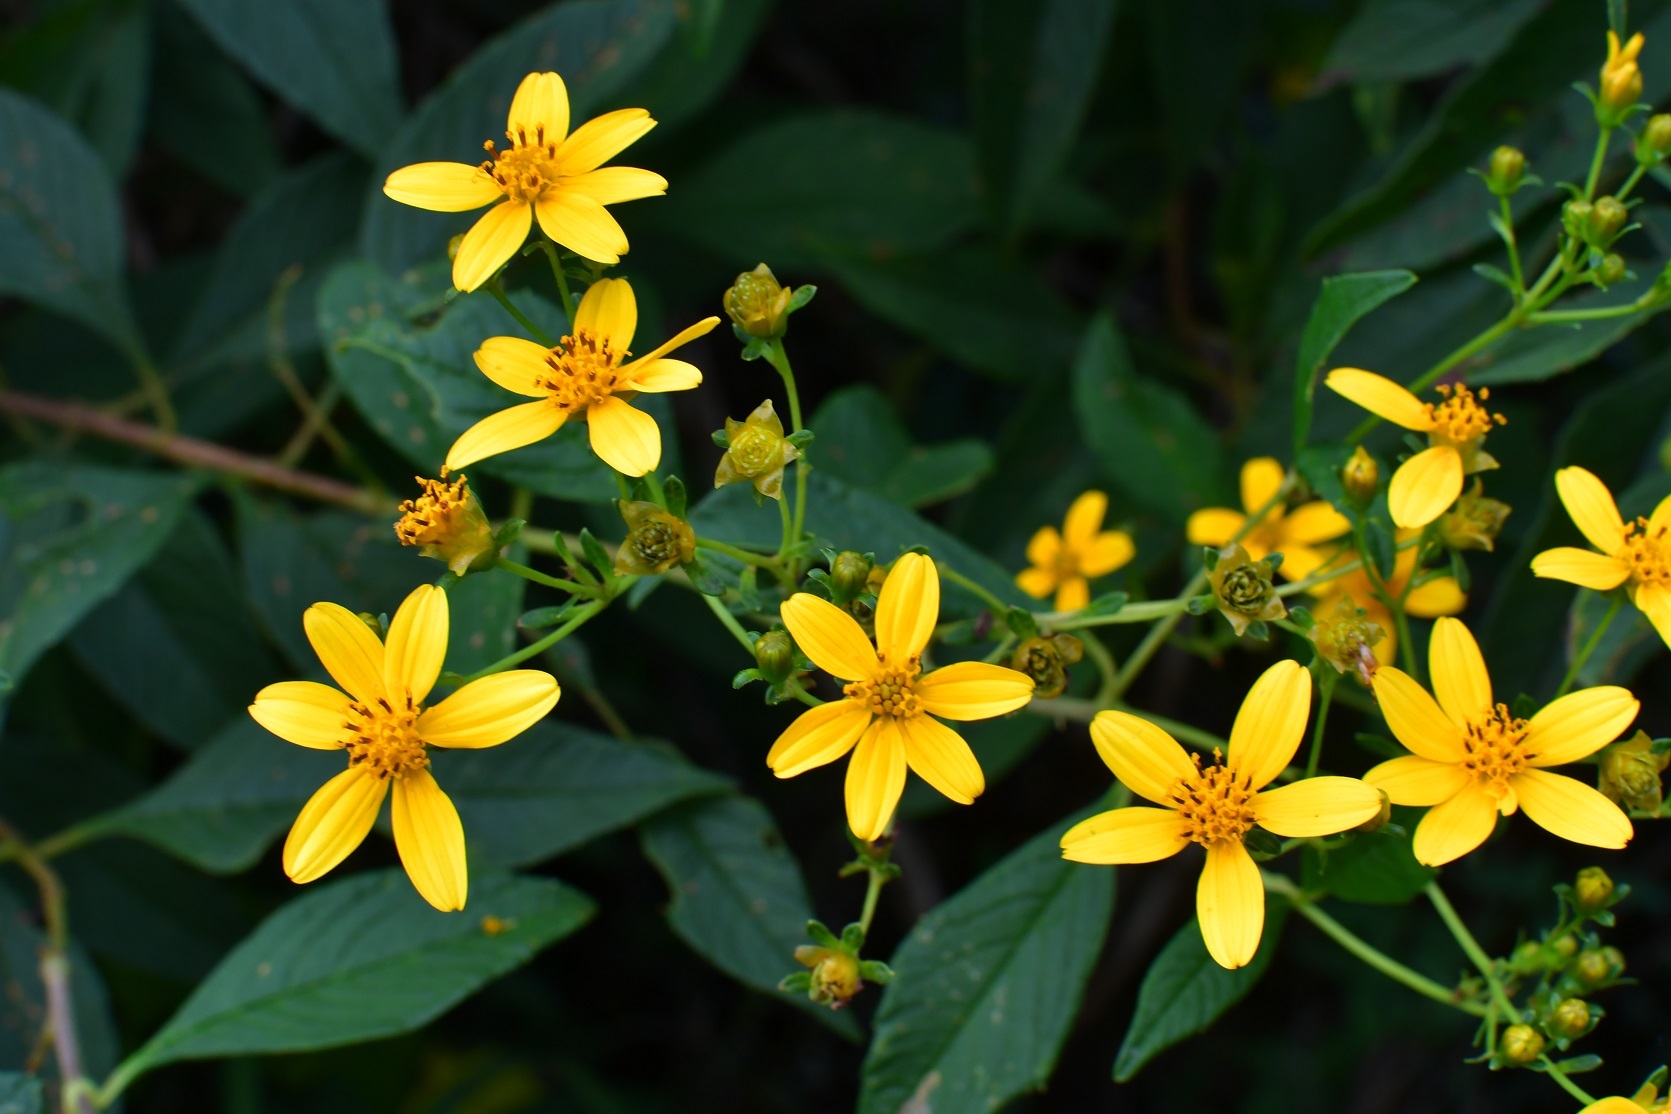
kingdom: Plantae
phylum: Tracheophyta
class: Magnoliopsida
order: Asterales
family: Asteraceae
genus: Electranthera
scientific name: Electranthera mutica
